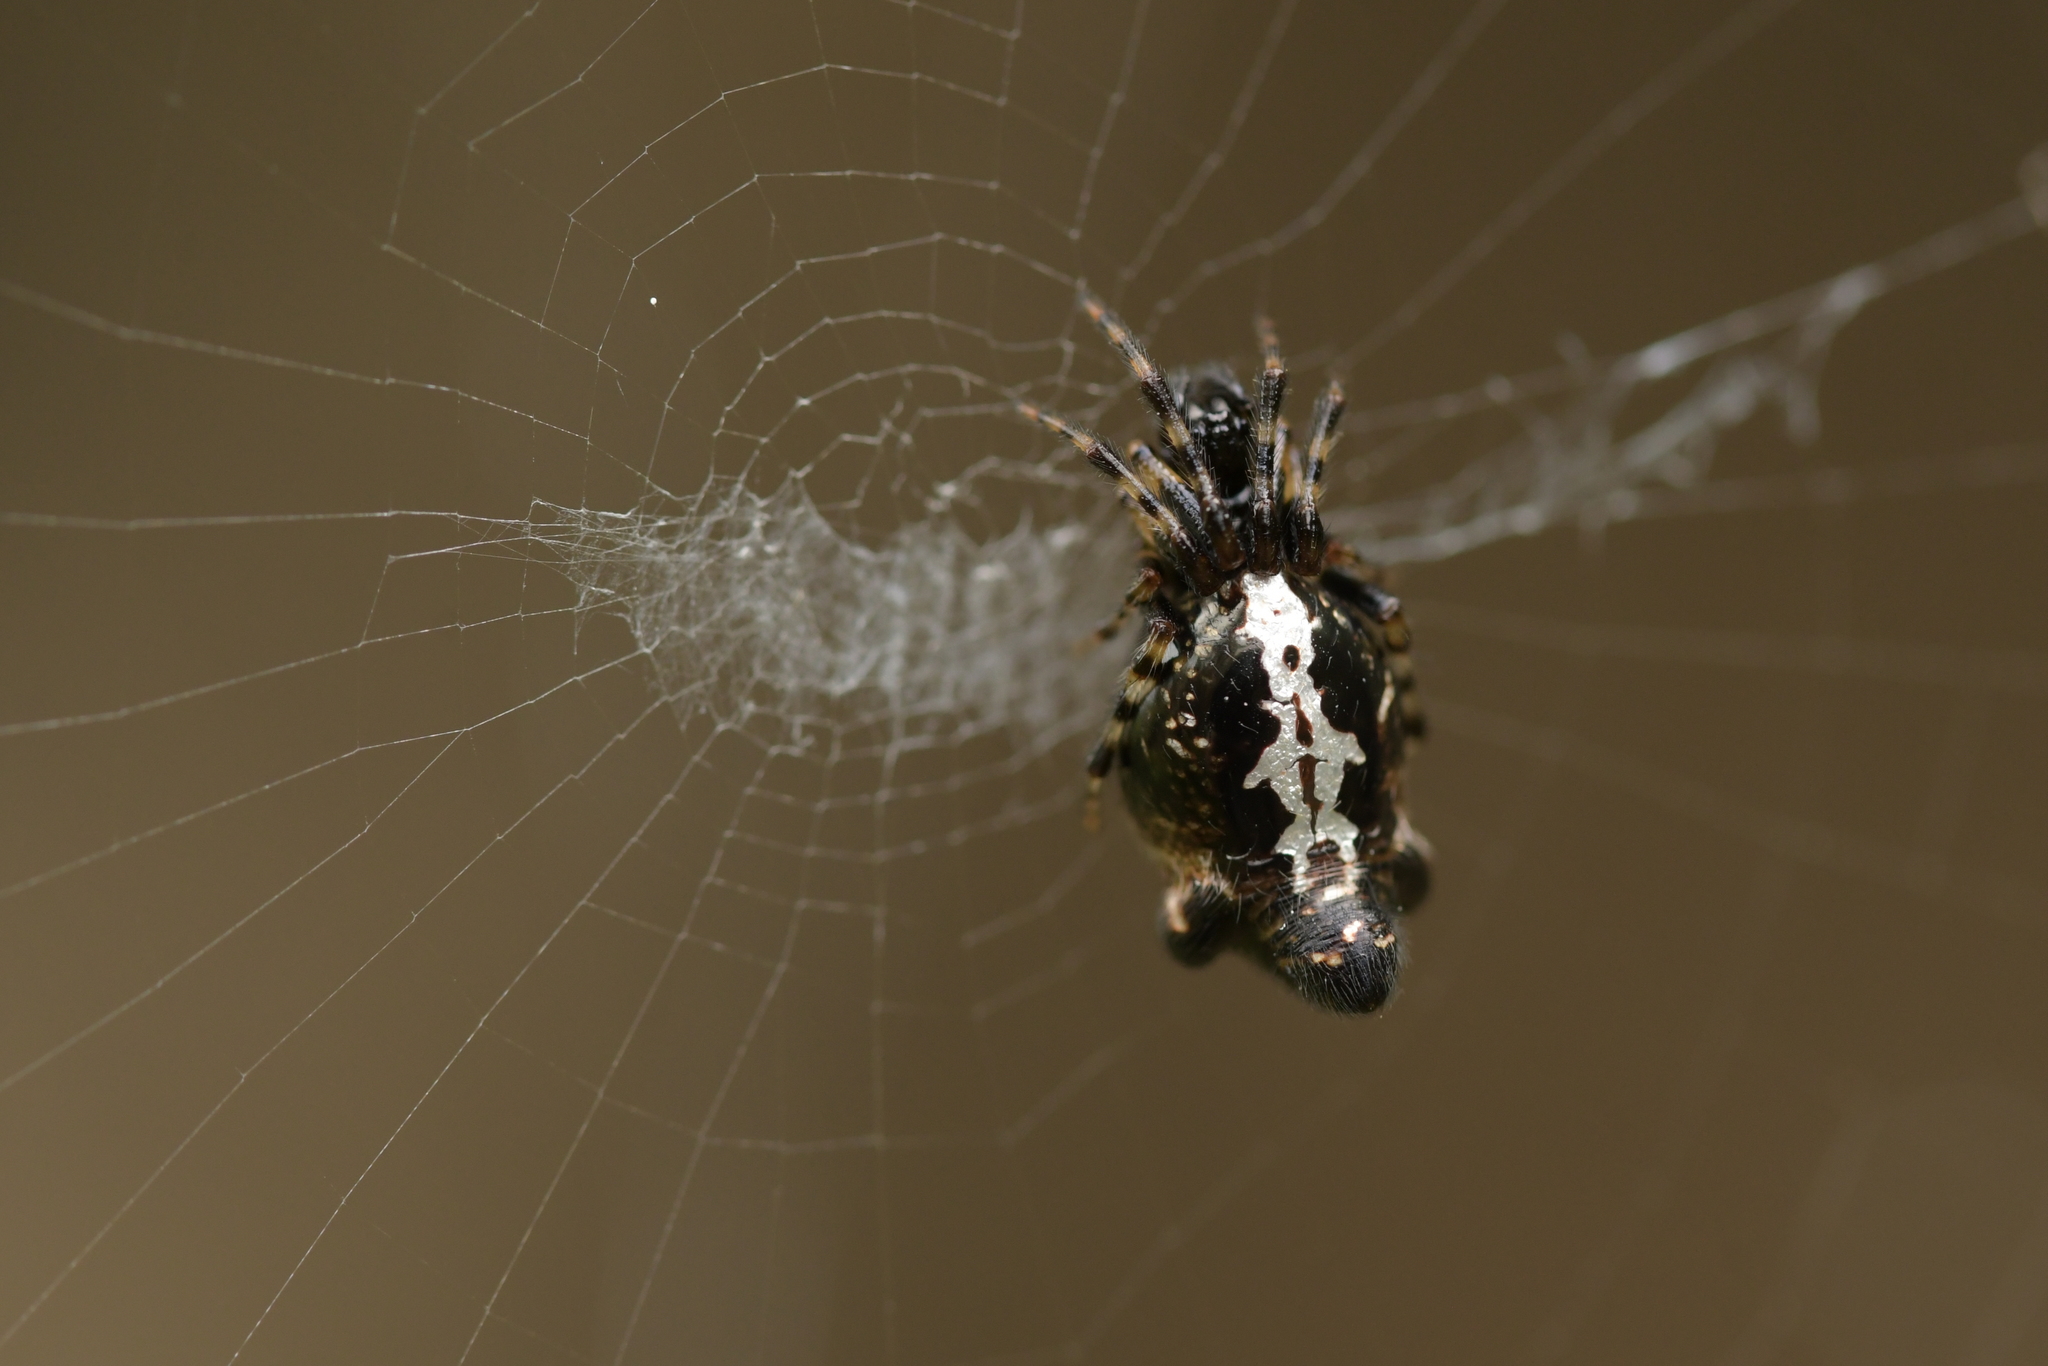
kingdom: Animalia
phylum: Arthropoda
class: Arachnida
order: Araneae
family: Araneidae
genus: Cyclosa
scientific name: Cyclosa trilobata
